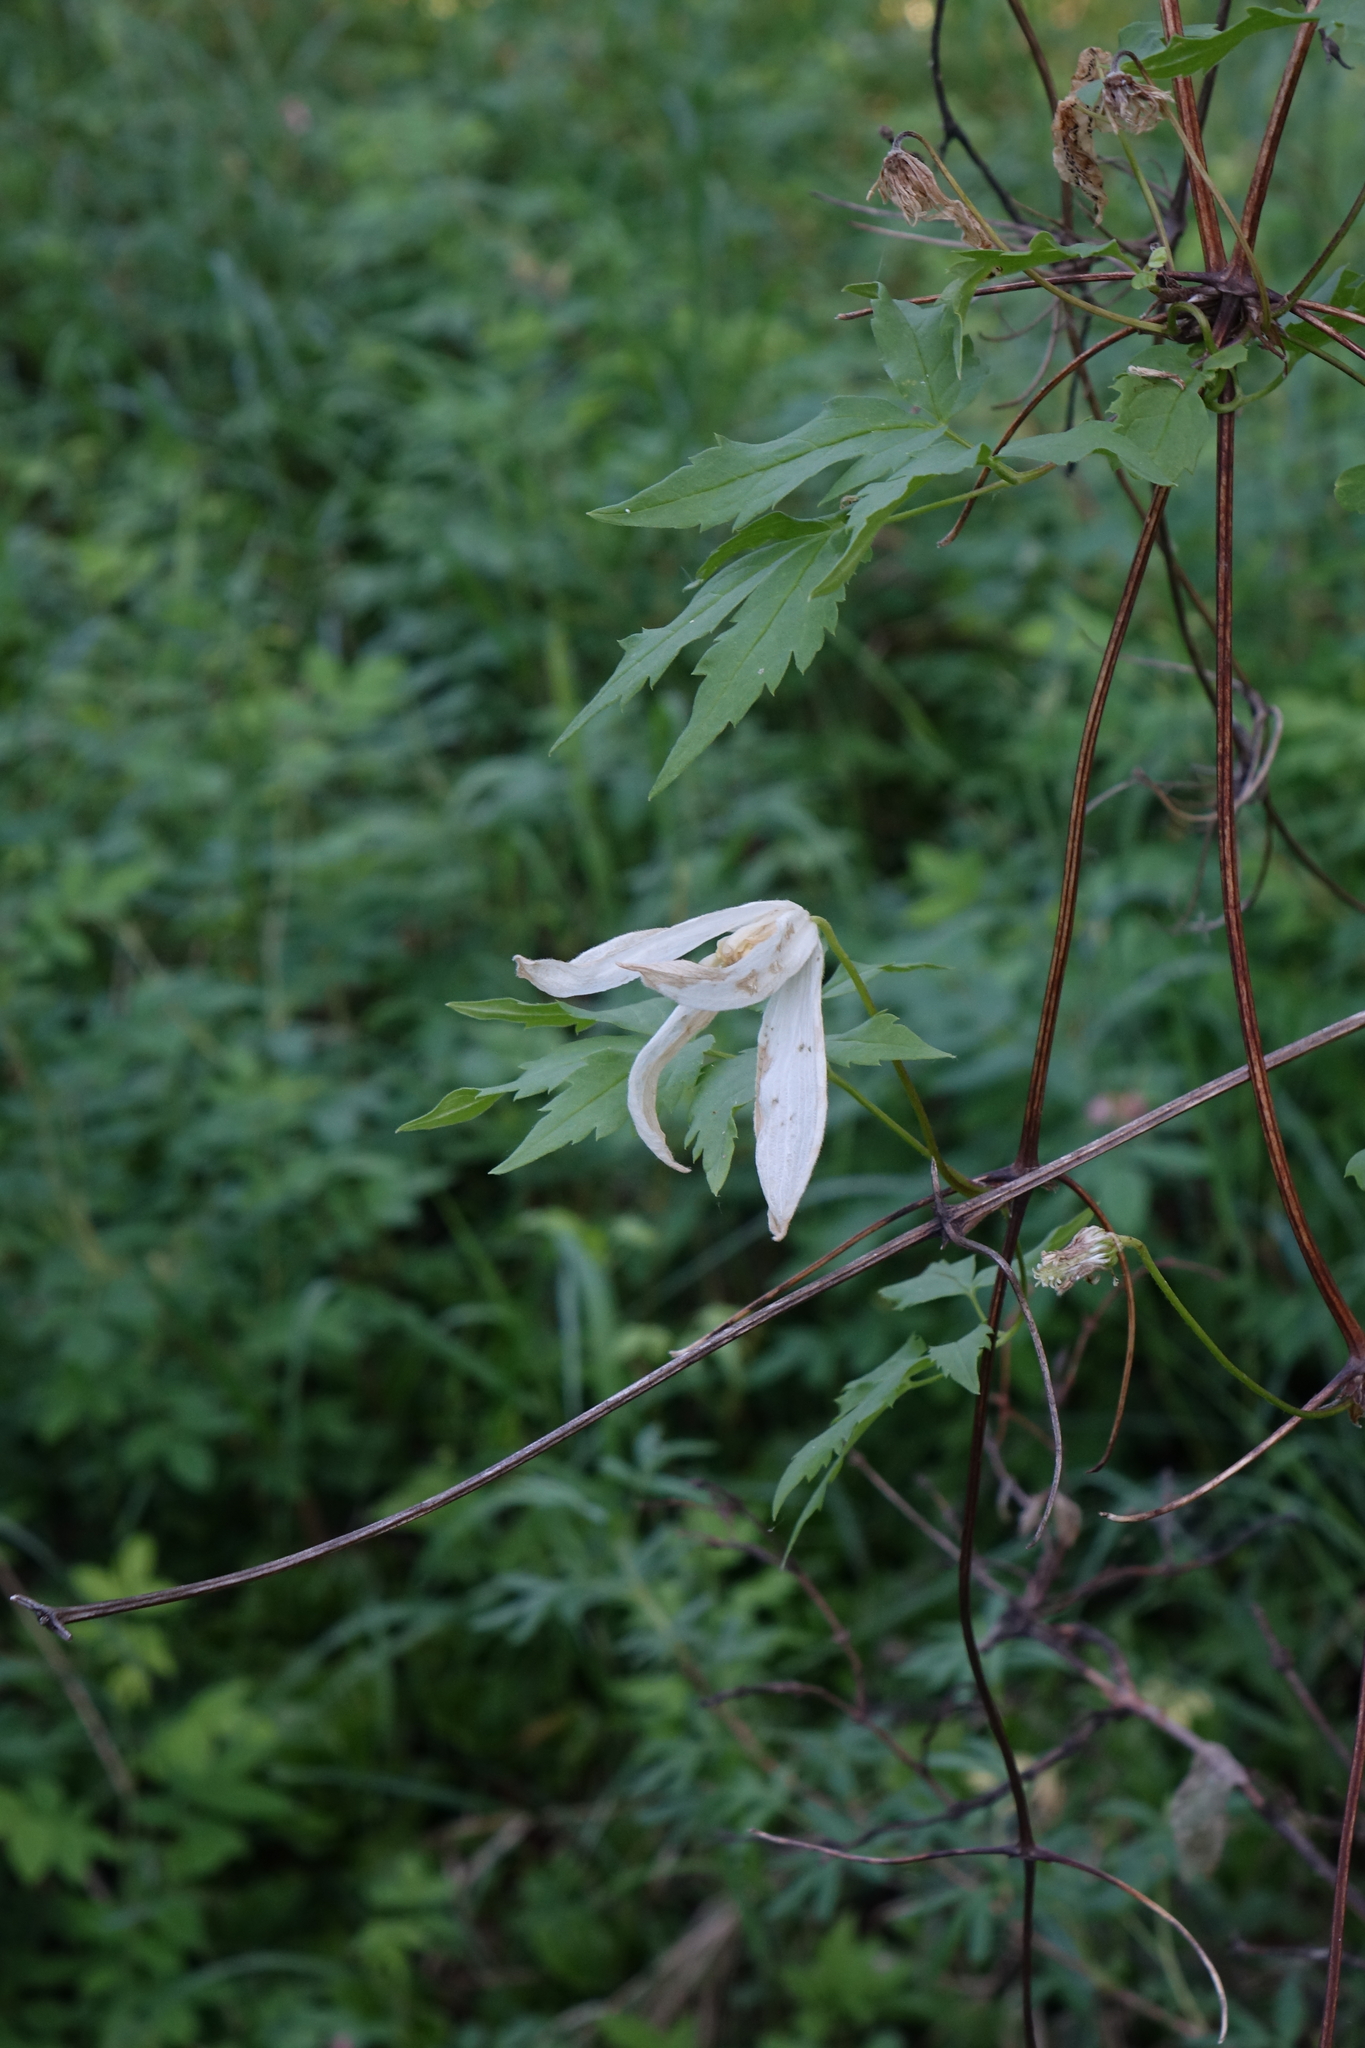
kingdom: Plantae
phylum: Tracheophyta
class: Magnoliopsida
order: Ranunculales
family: Ranunculaceae
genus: Clematis
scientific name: Clematis sibirica
